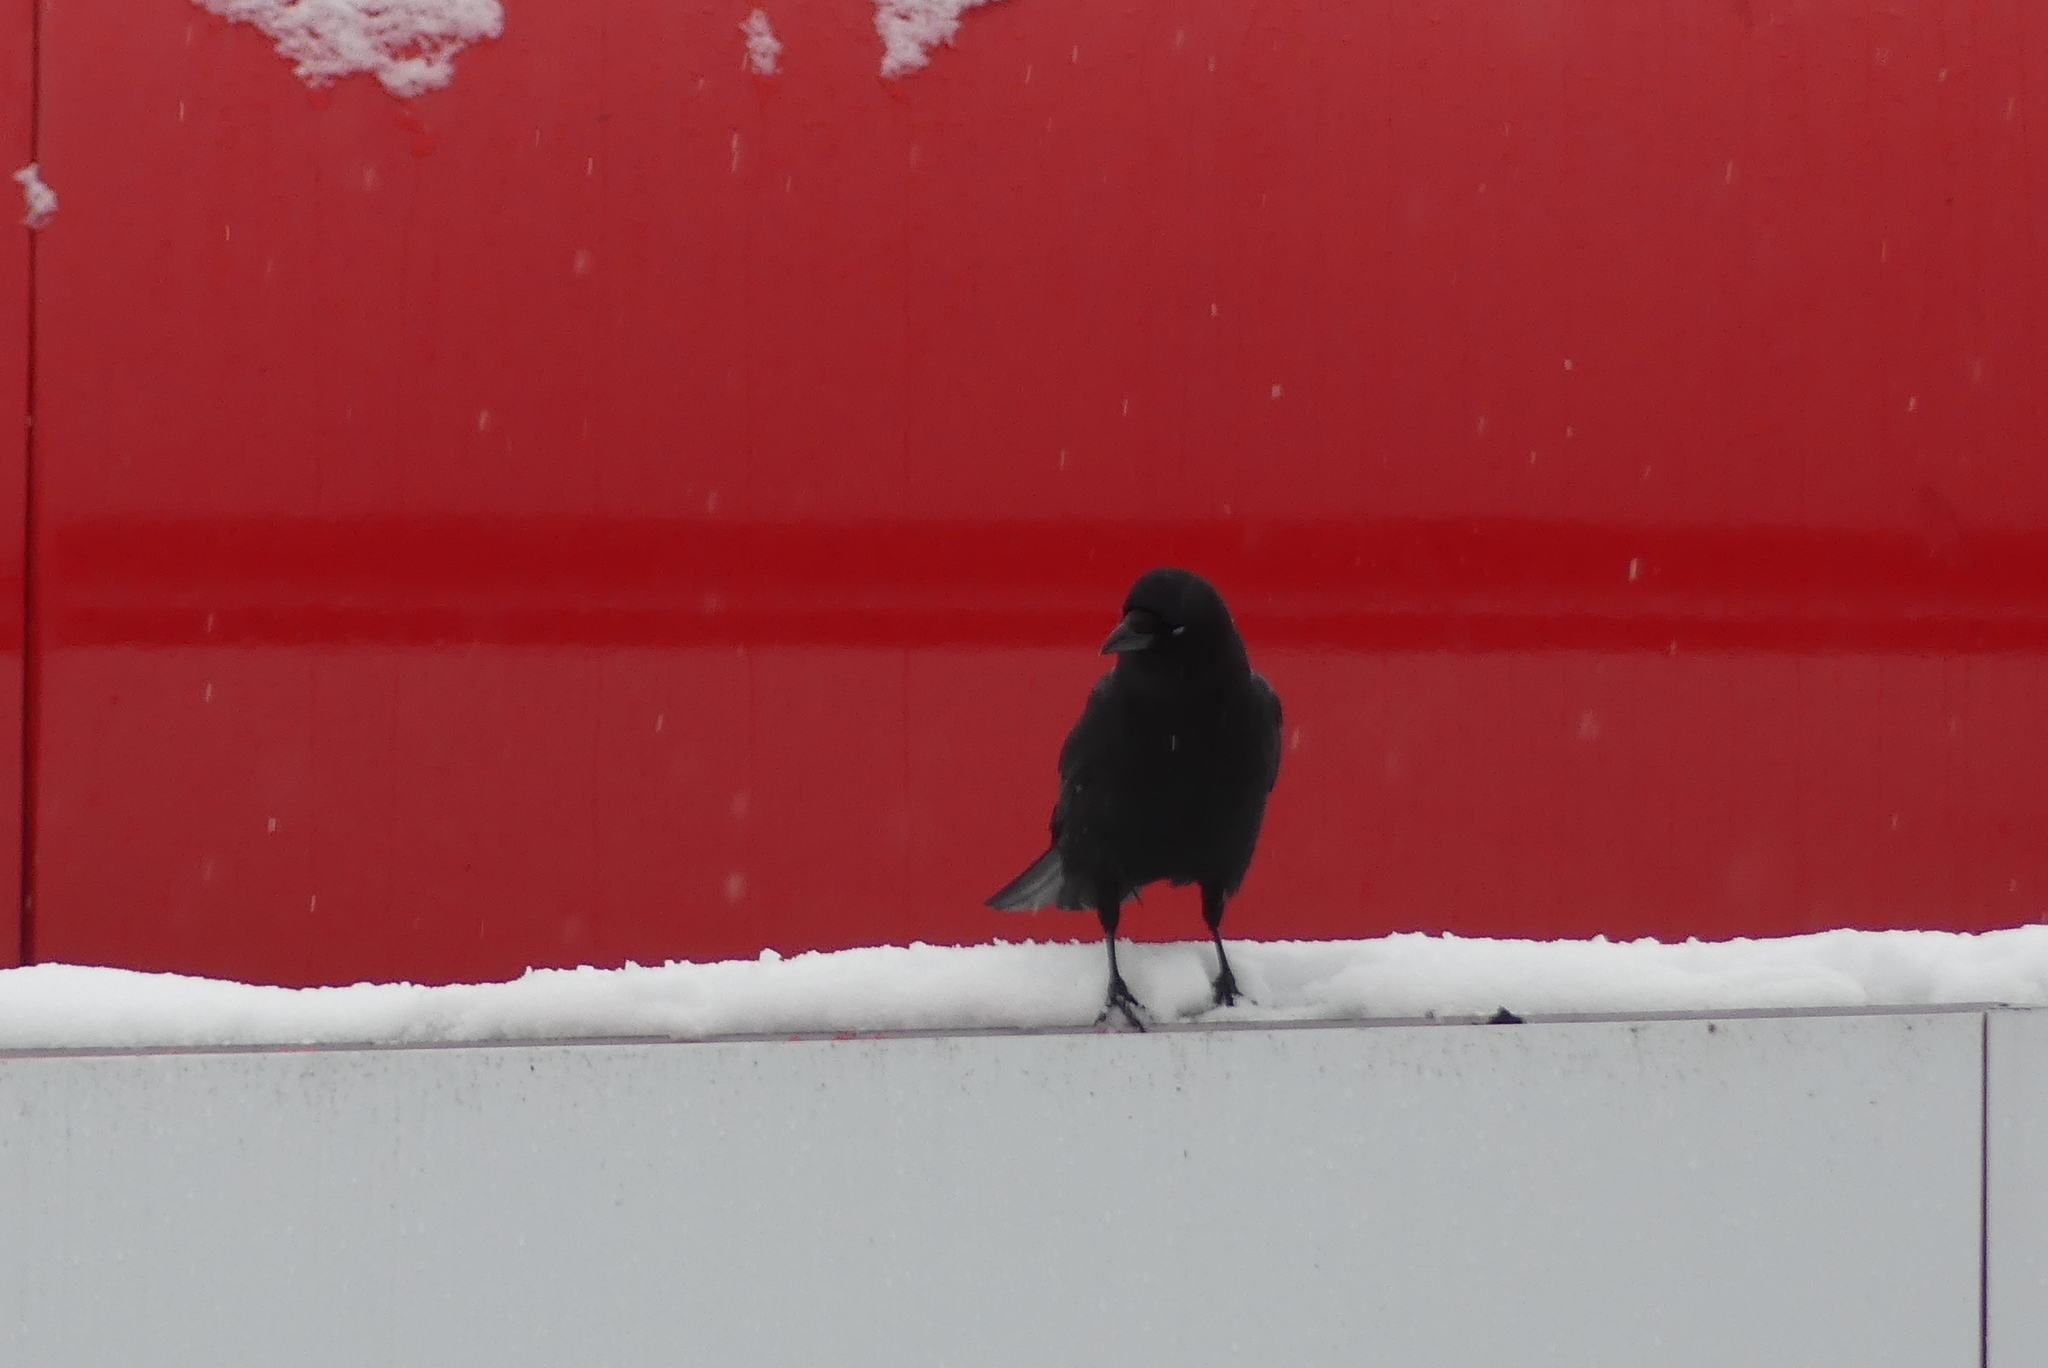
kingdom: Animalia
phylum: Chordata
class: Aves
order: Passeriformes
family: Corvidae
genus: Corvus
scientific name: Corvus brachyrhynchos
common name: American crow
